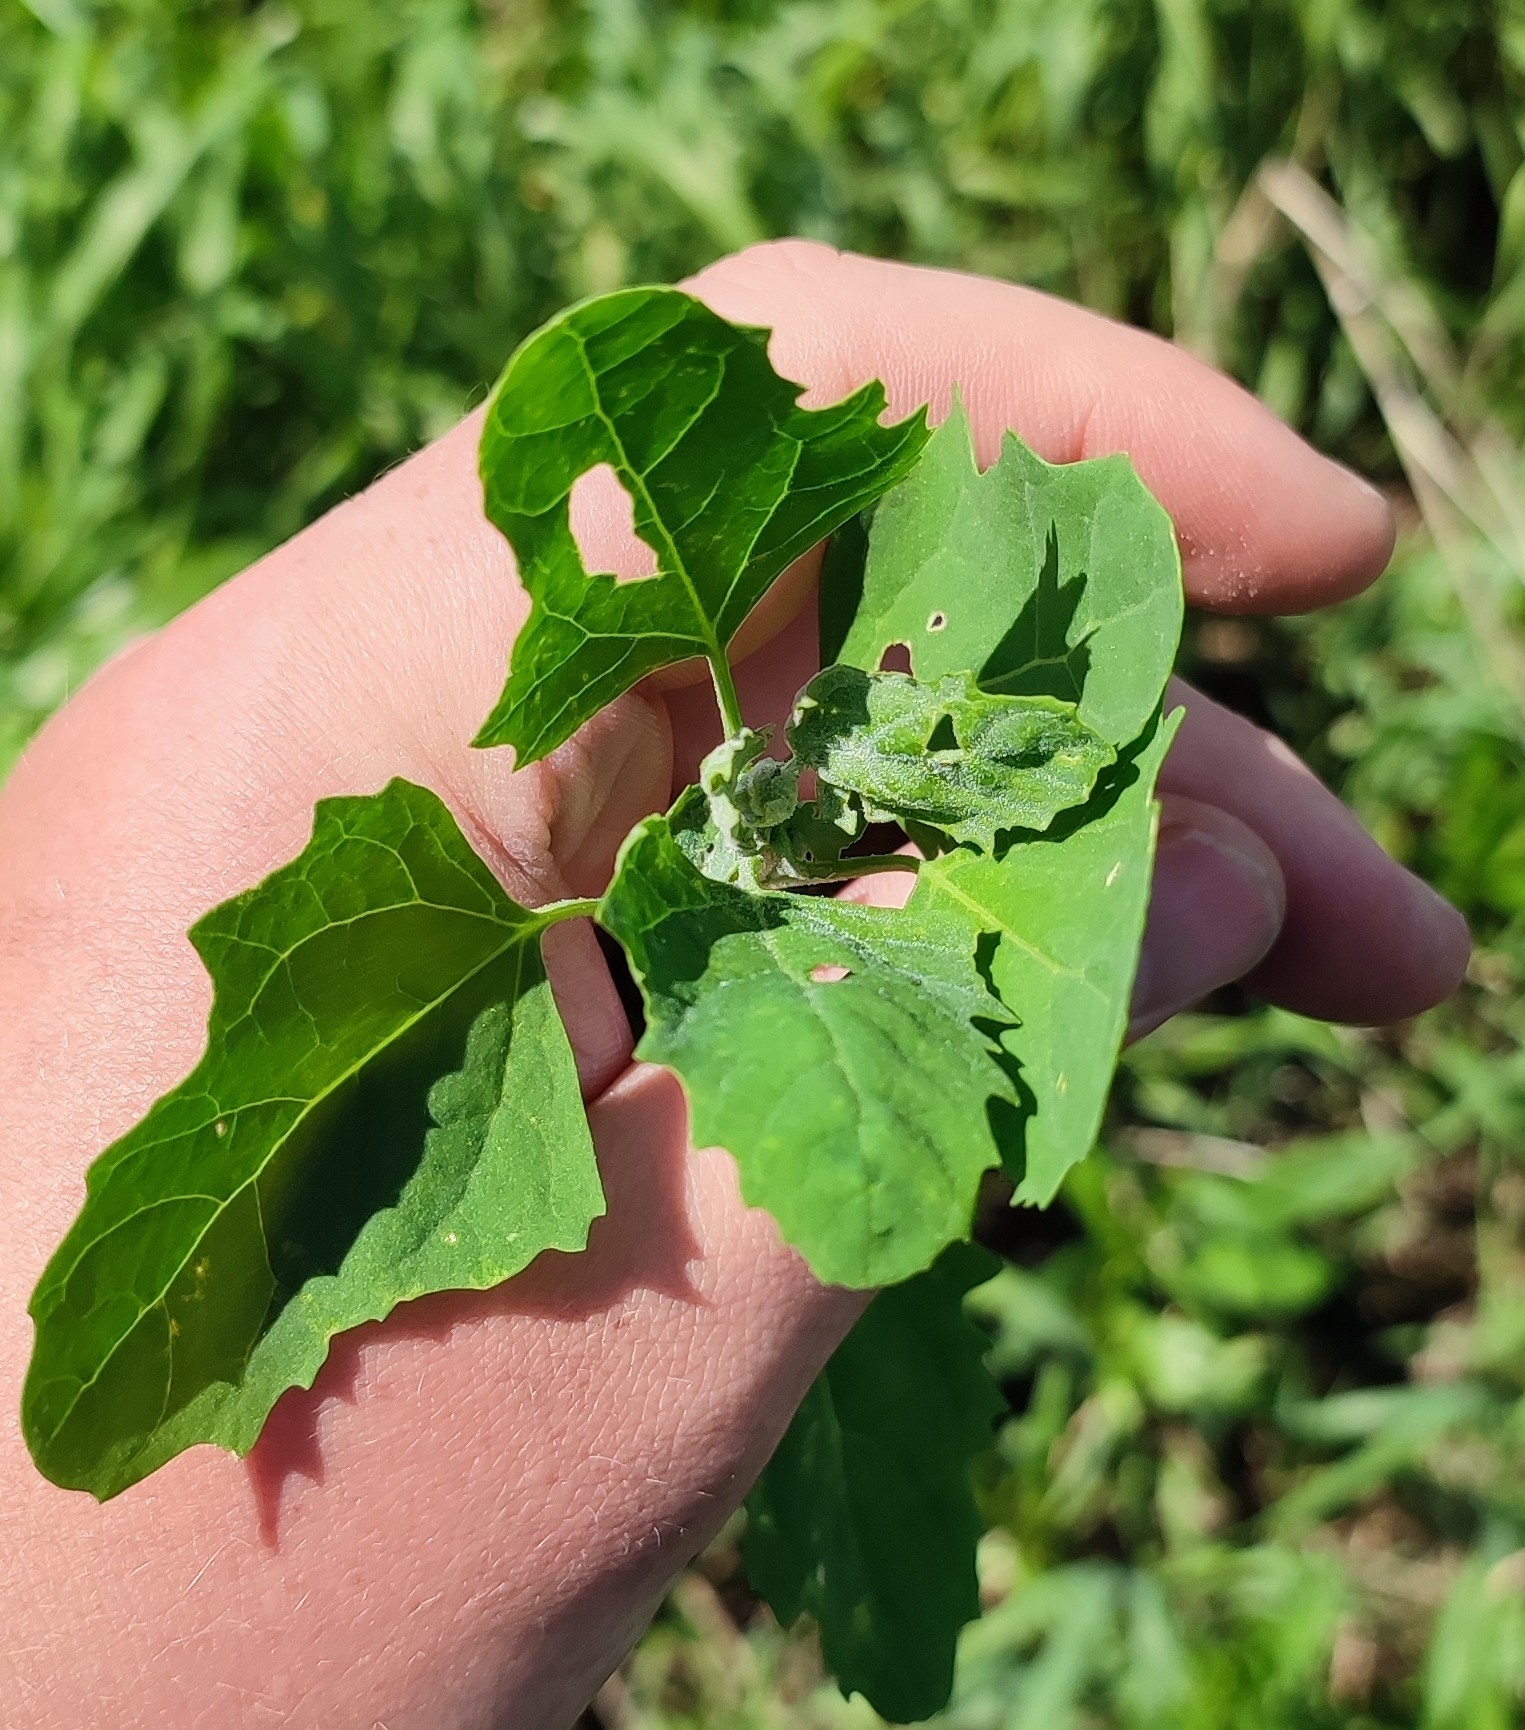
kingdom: Plantae
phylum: Tracheophyta
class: Magnoliopsida
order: Caryophyllales
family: Amaranthaceae
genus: Chenopodium
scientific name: Chenopodium album
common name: Fat-hen
